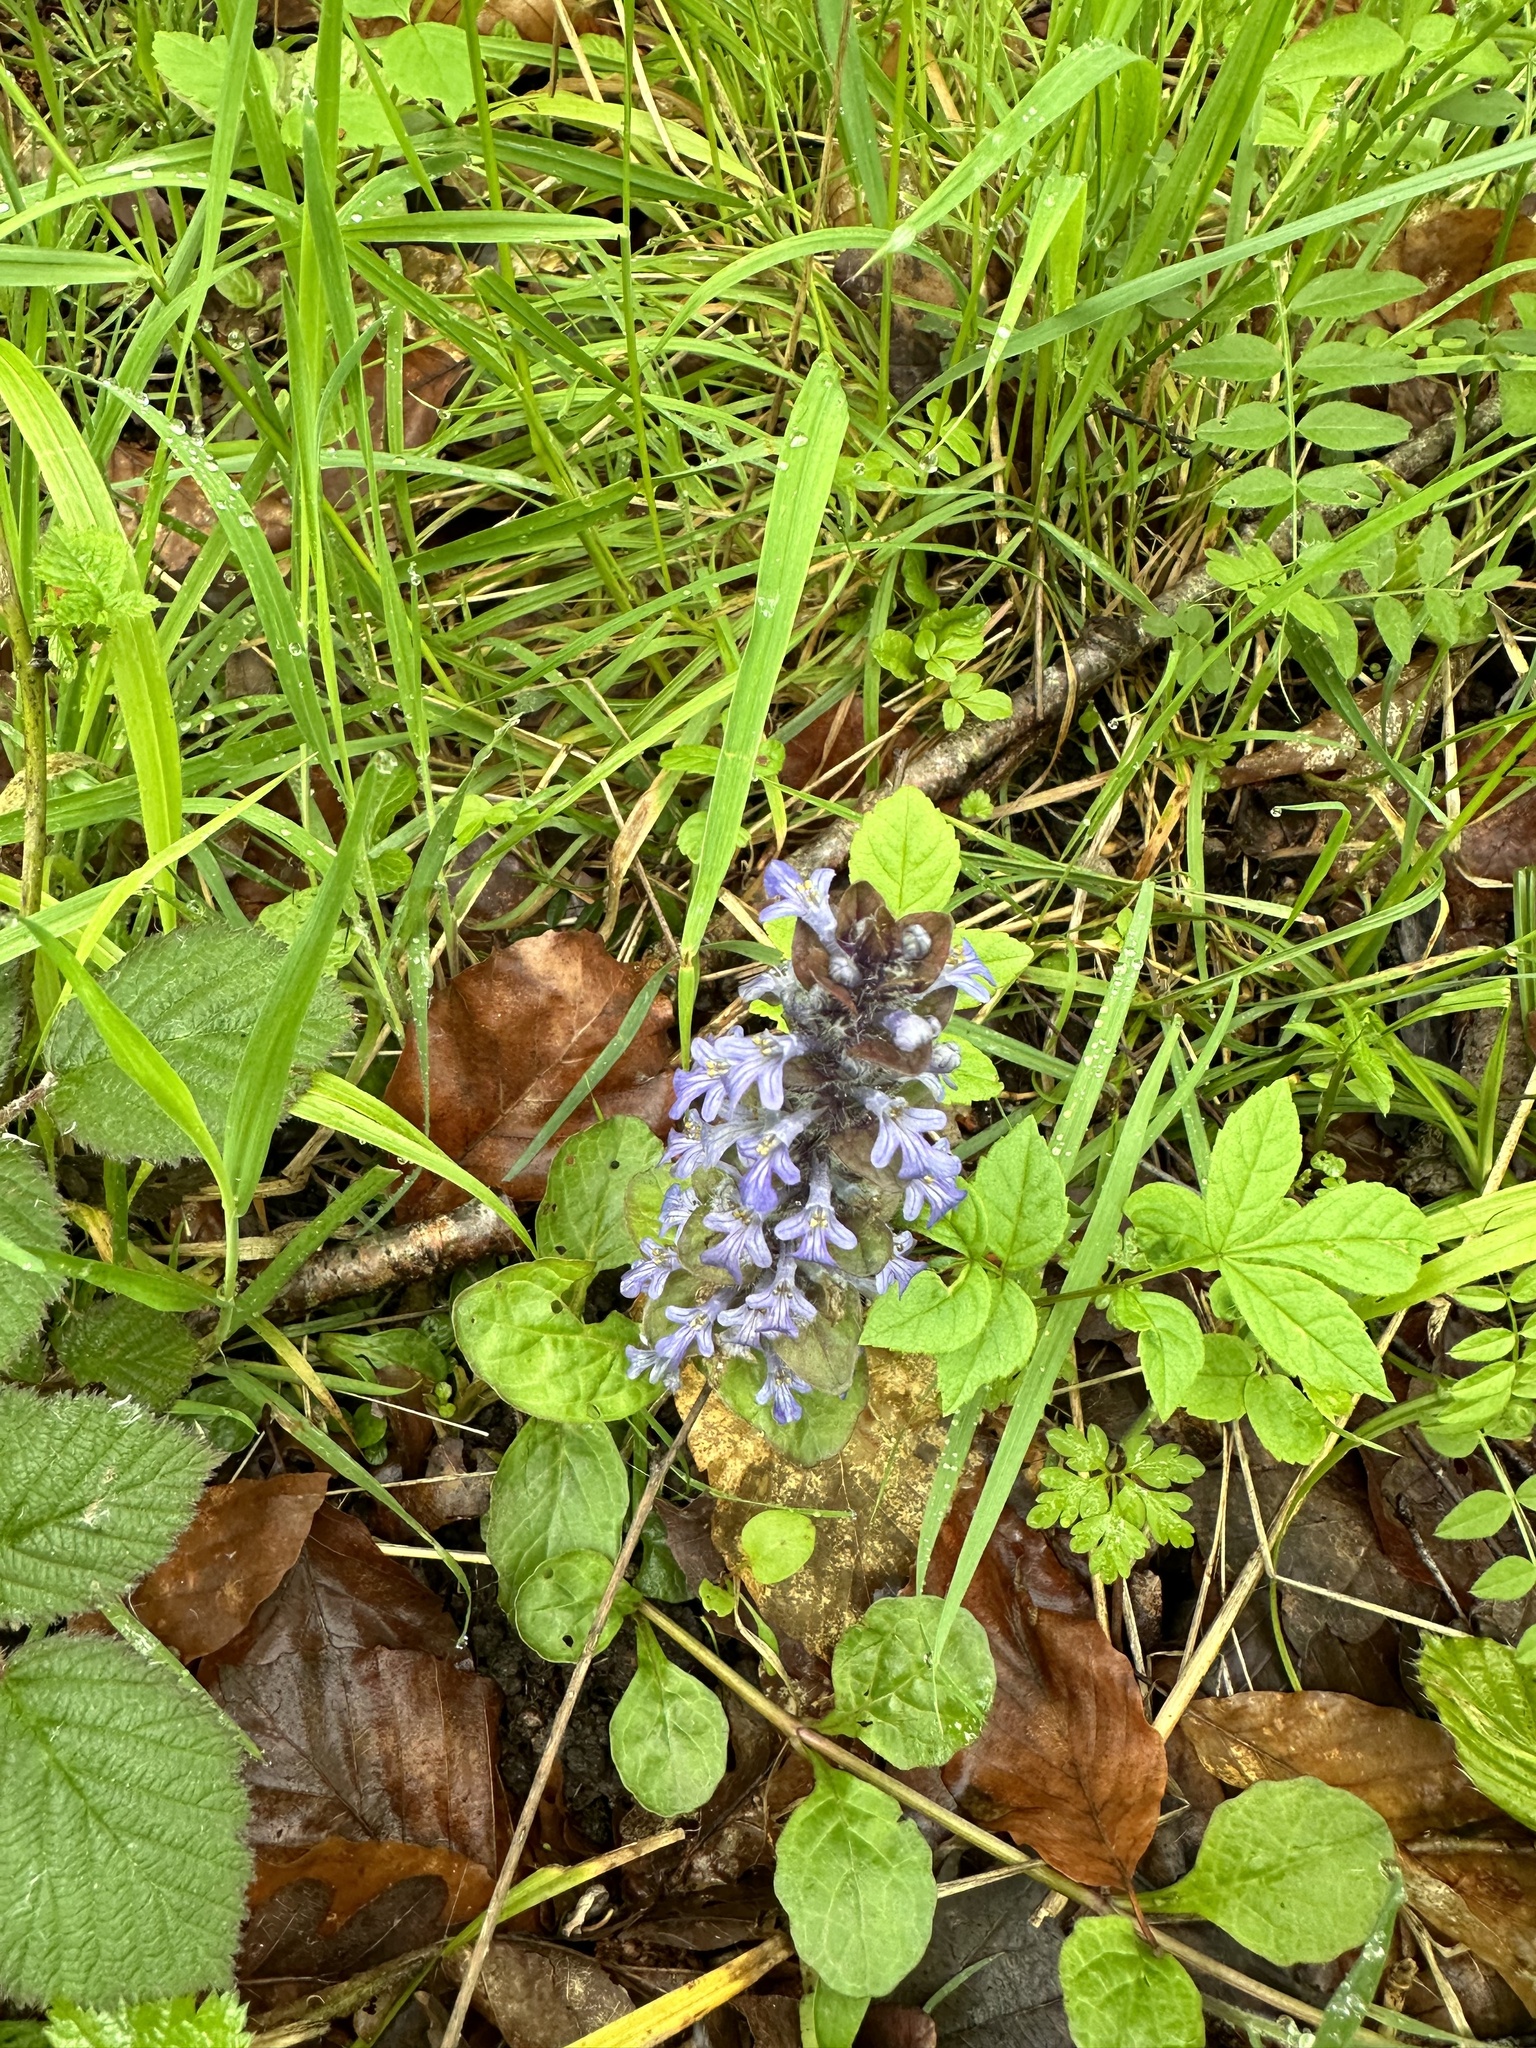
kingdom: Plantae
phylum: Tracheophyta
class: Magnoliopsida
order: Lamiales
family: Lamiaceae
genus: Ajuga
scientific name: Ajuga reptans
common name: Bugle
